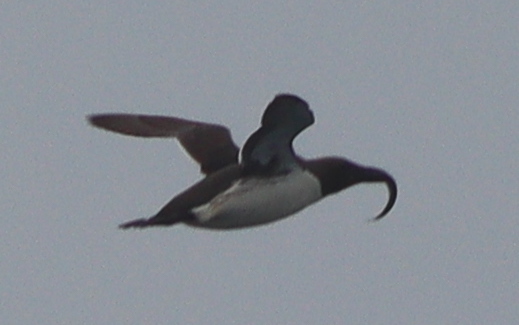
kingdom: Animalia
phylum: Chordata
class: Aves
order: Charadriiformes
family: Alcidae
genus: Uria
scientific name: Uria aalge
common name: Common murre
